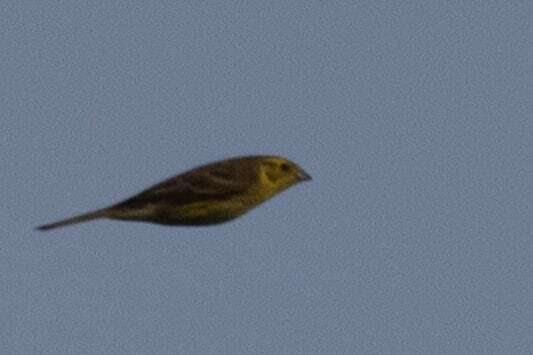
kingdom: Animalia
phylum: Chordata
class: Aves
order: Passeriformes
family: Emberizidae
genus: Emberiza
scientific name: Emberiza citrinella
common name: Yellowhammer
